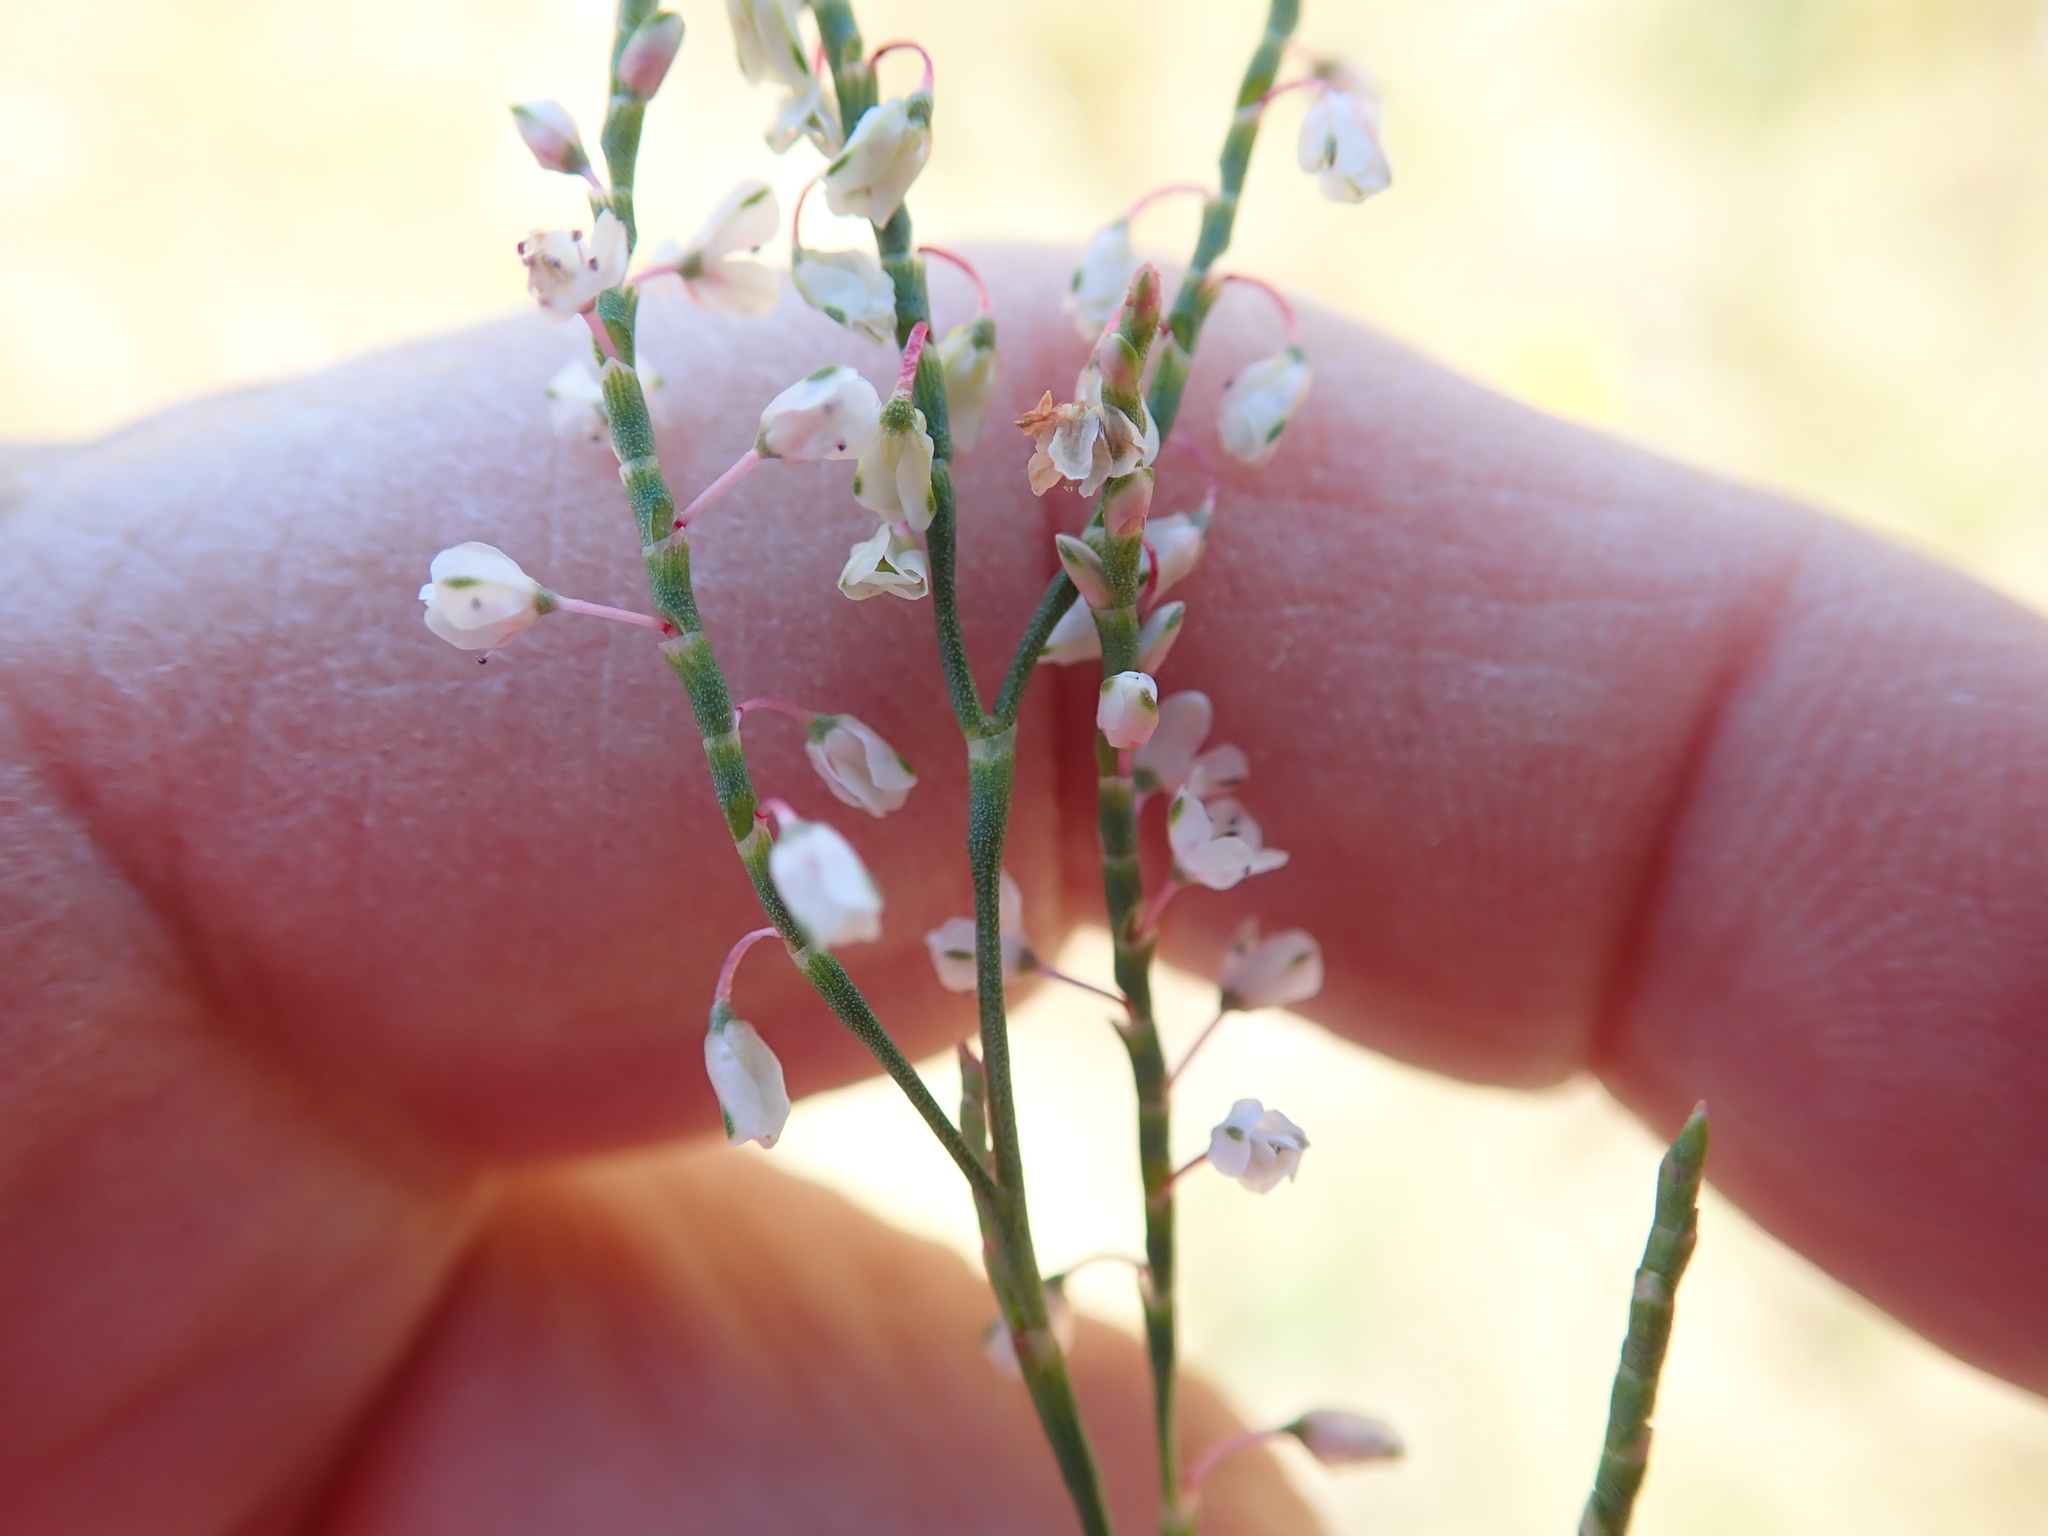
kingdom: Plantae
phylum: Tracheophyta
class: Magnoliopsida
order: Caryophyllales
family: Polygonaceae
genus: Polygonella
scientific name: Polygonella articulata
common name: Coastal jointweed
